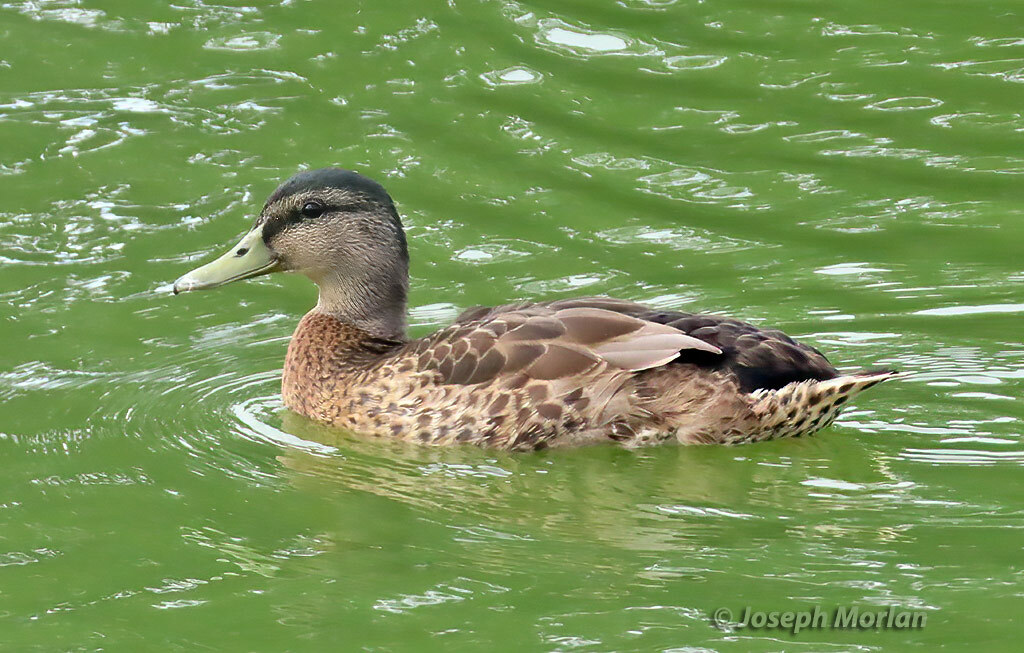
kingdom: Animalia
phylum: Chordata
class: Aves
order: Anseriformes
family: Anatidae
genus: Anas
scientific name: Anas platyrhynchos
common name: Mallard
